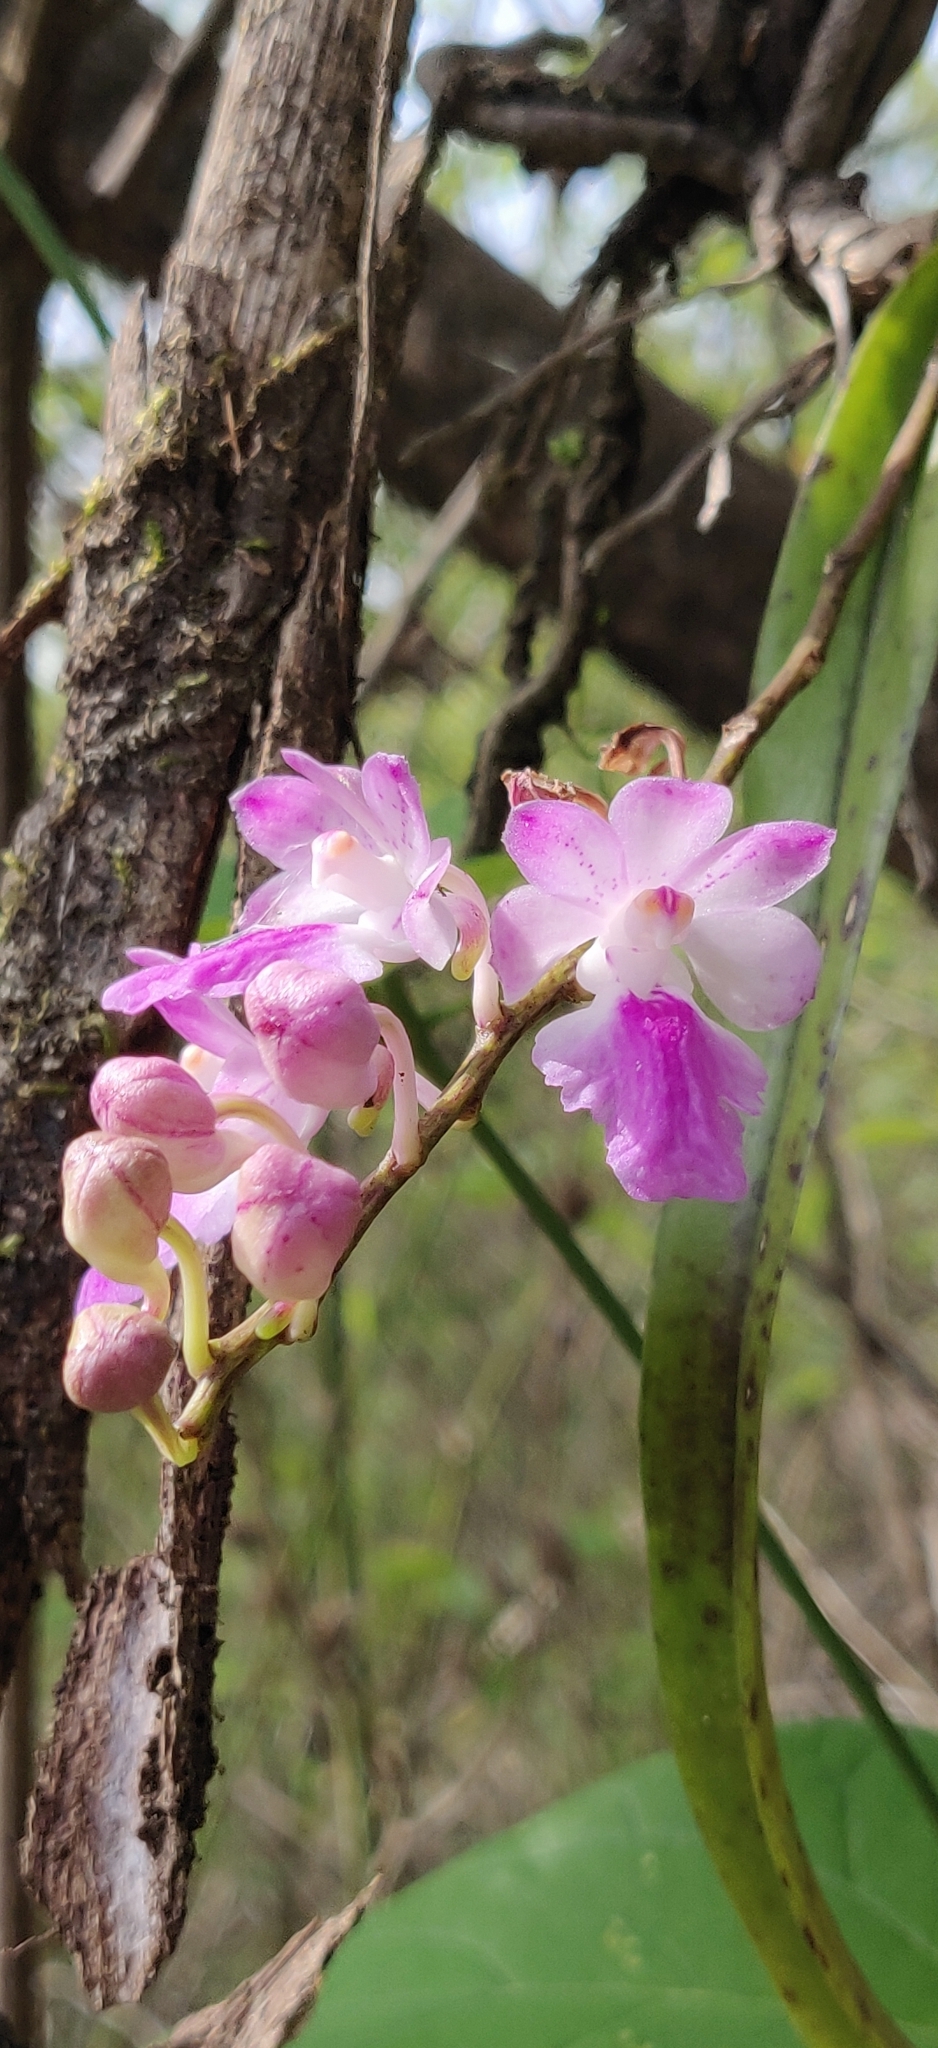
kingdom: Plantae
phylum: Tracheophyta
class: Liliopsida
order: Asparagales
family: Orchidaceae
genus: Aerides
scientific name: Aerides maculosa
